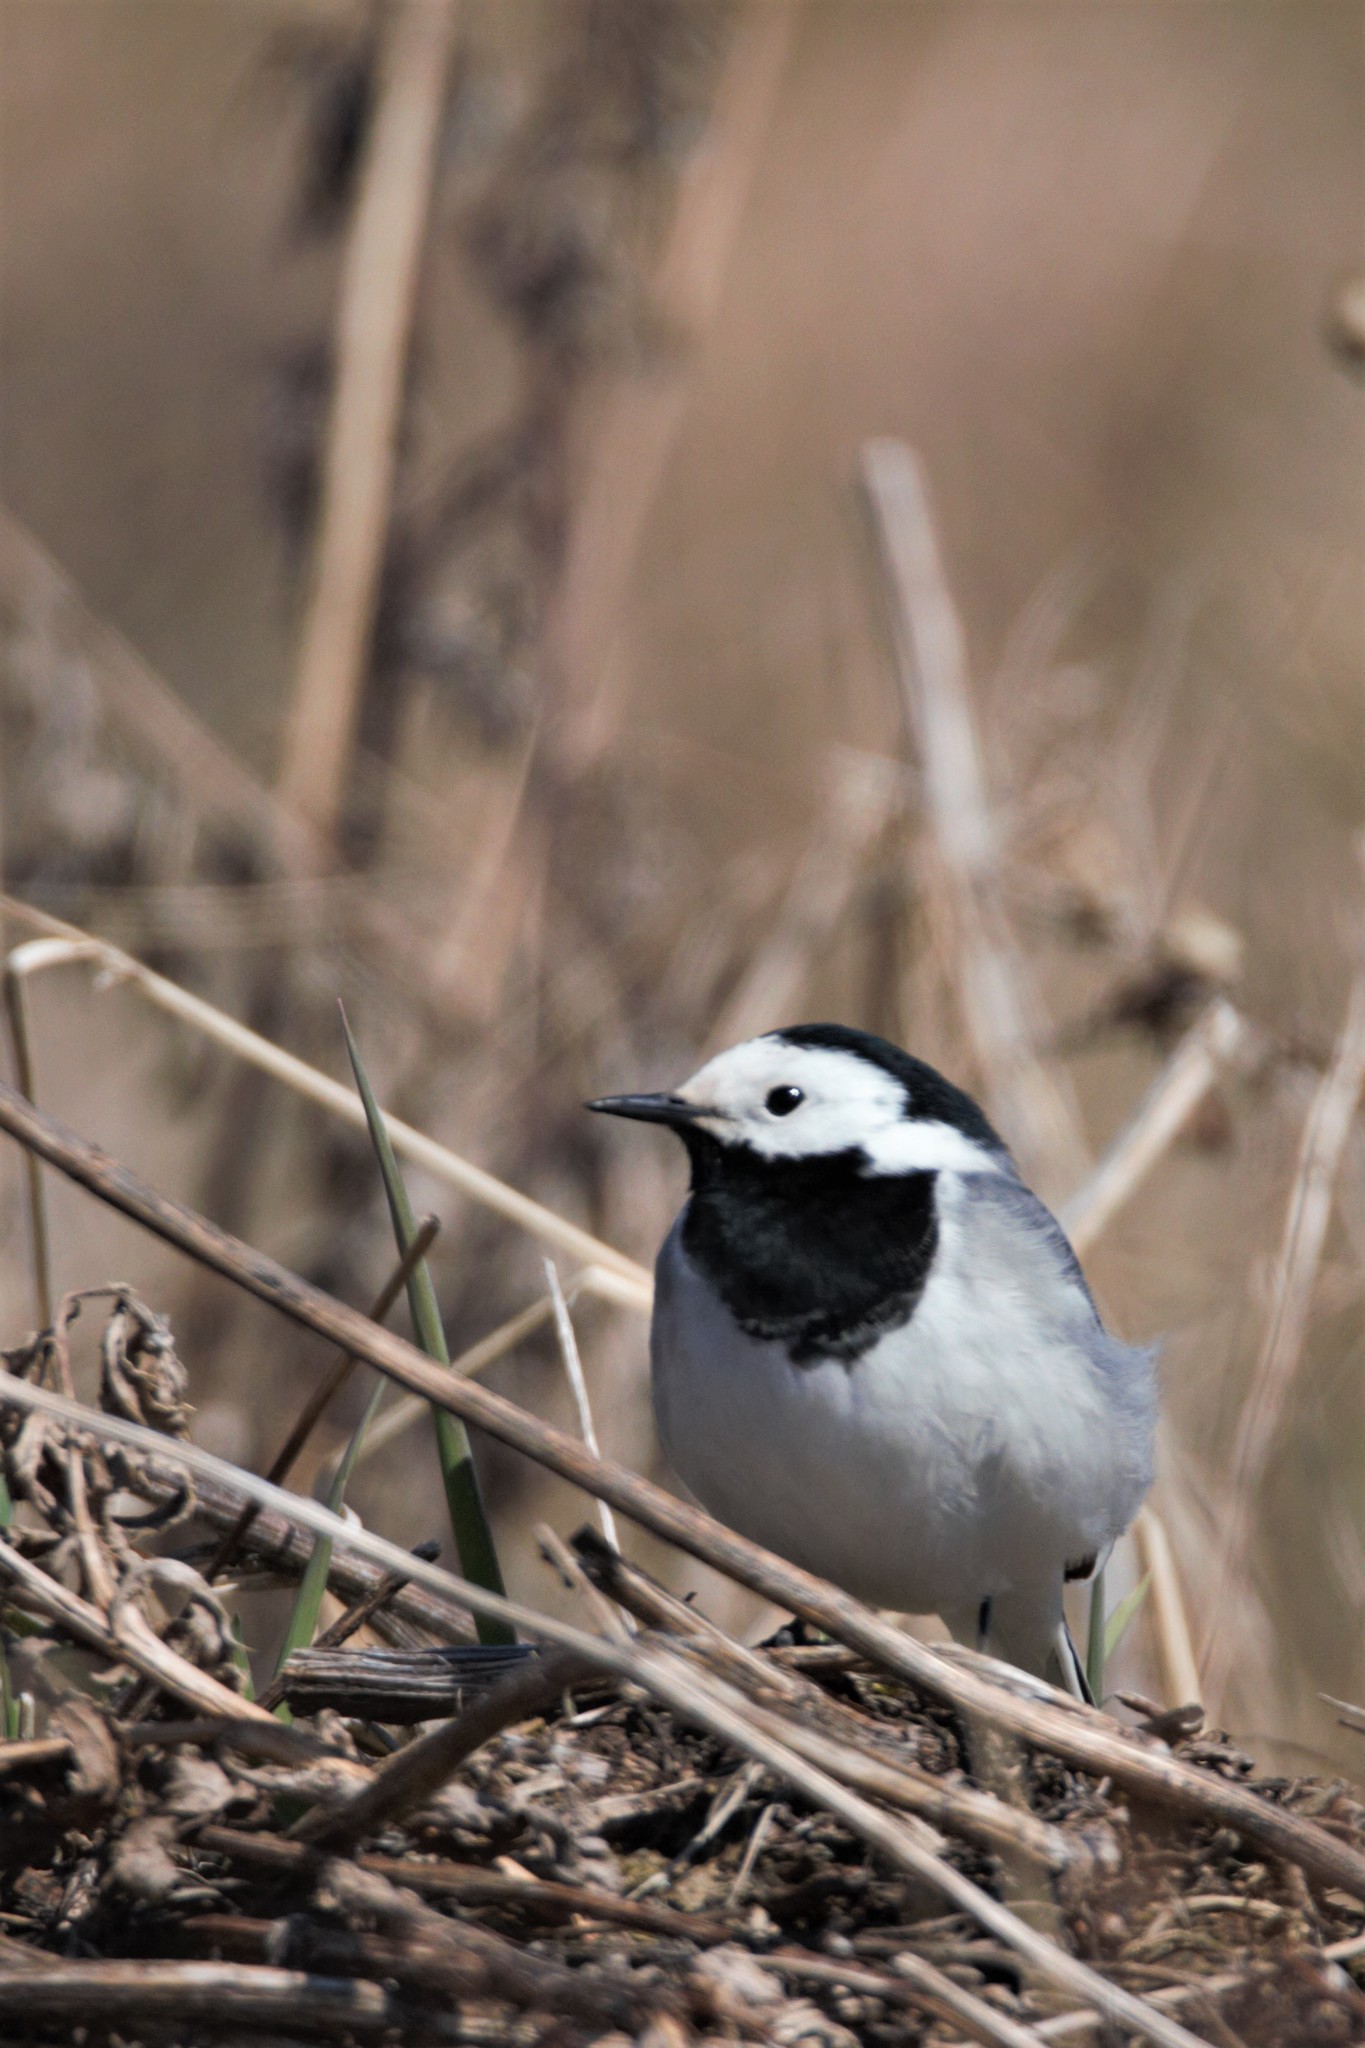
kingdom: Animalia
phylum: Chordata
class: Aves
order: Passeriformes
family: Motacillidae
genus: Motacilla
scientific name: Motacilla alba
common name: White wagtail
